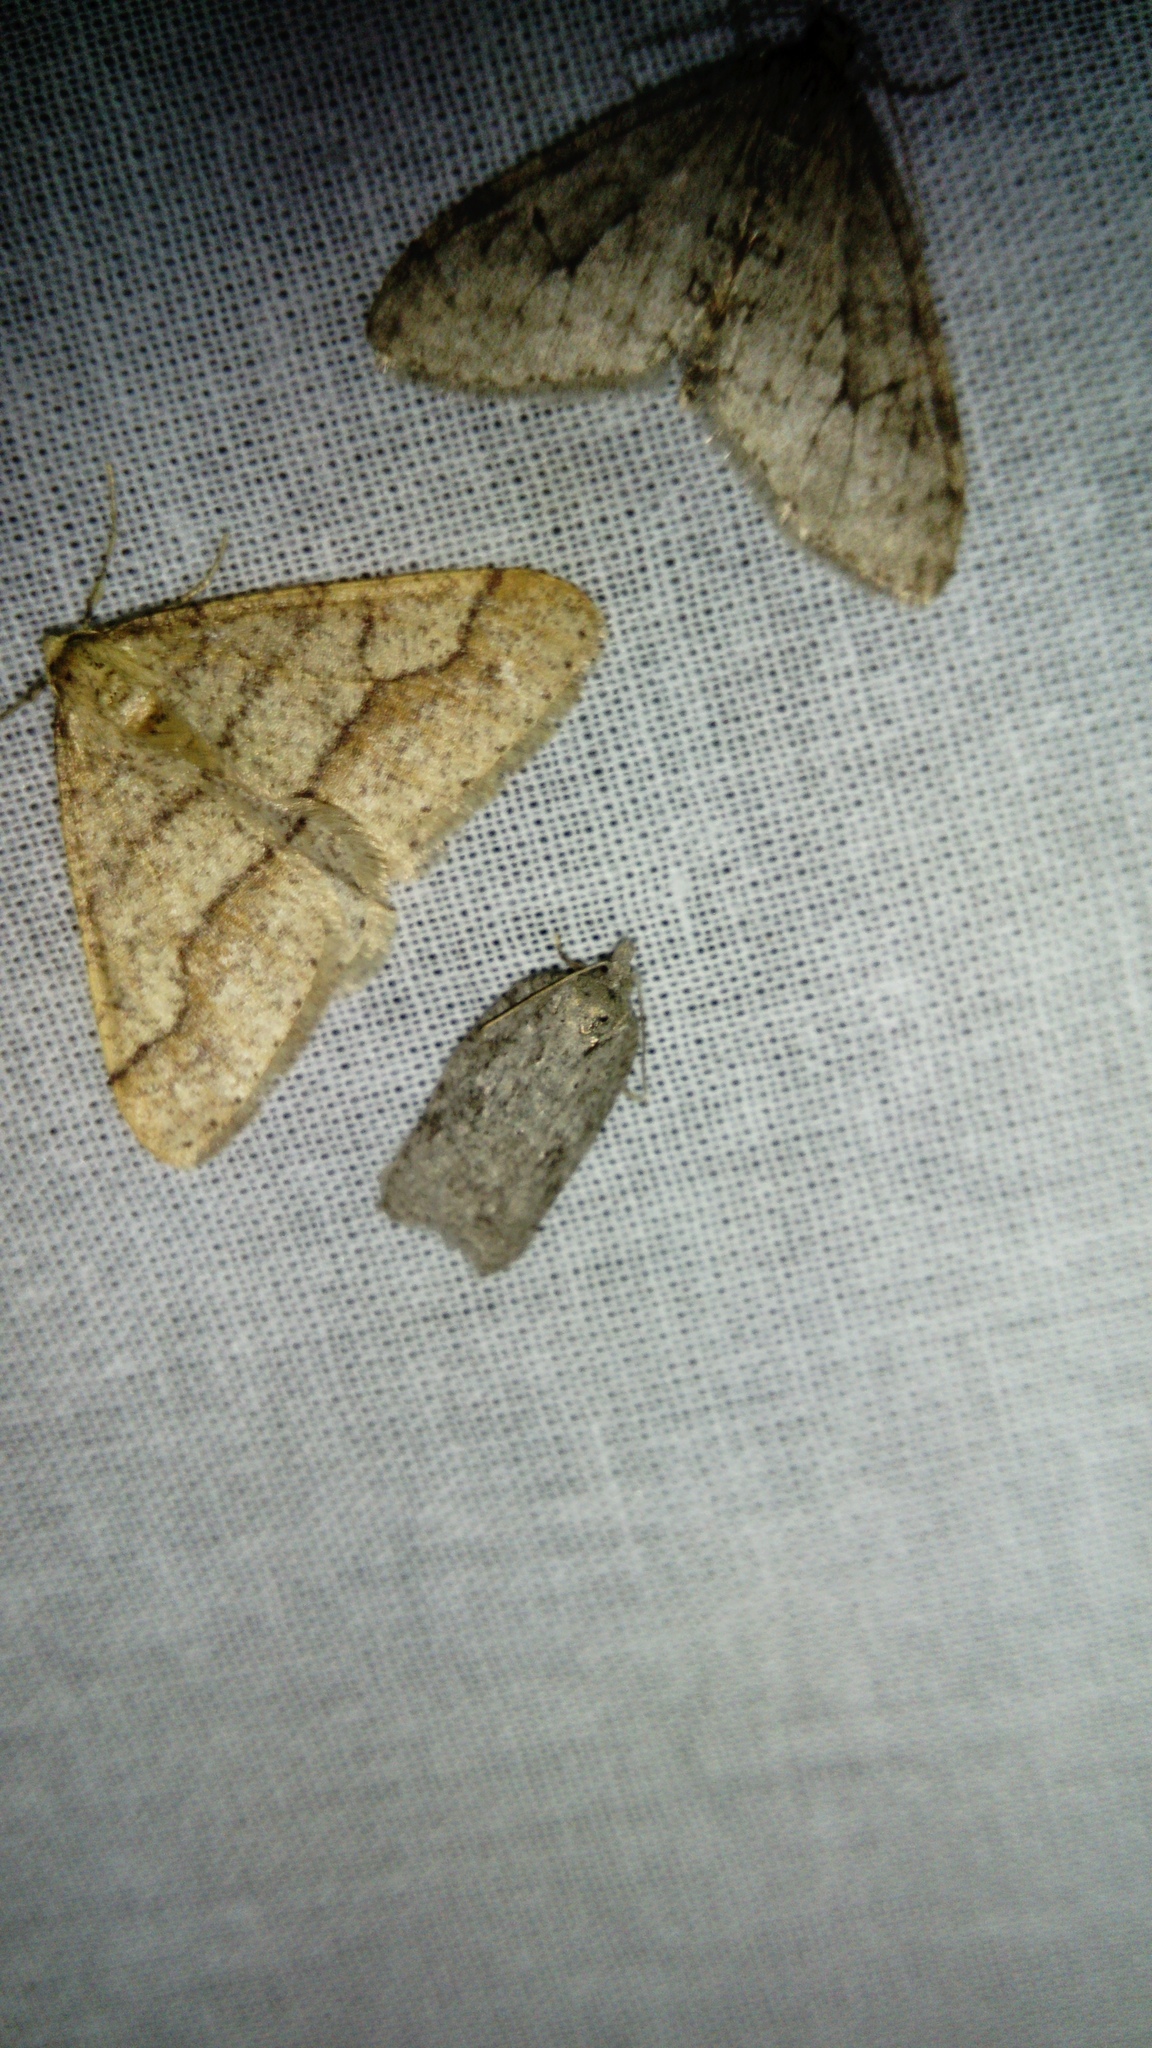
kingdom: Animalia
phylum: Arthropoda
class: Insecta
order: Lepidoptera
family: Geometridae
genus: Agriopis
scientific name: Agriopis marginaria
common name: Dotted border
